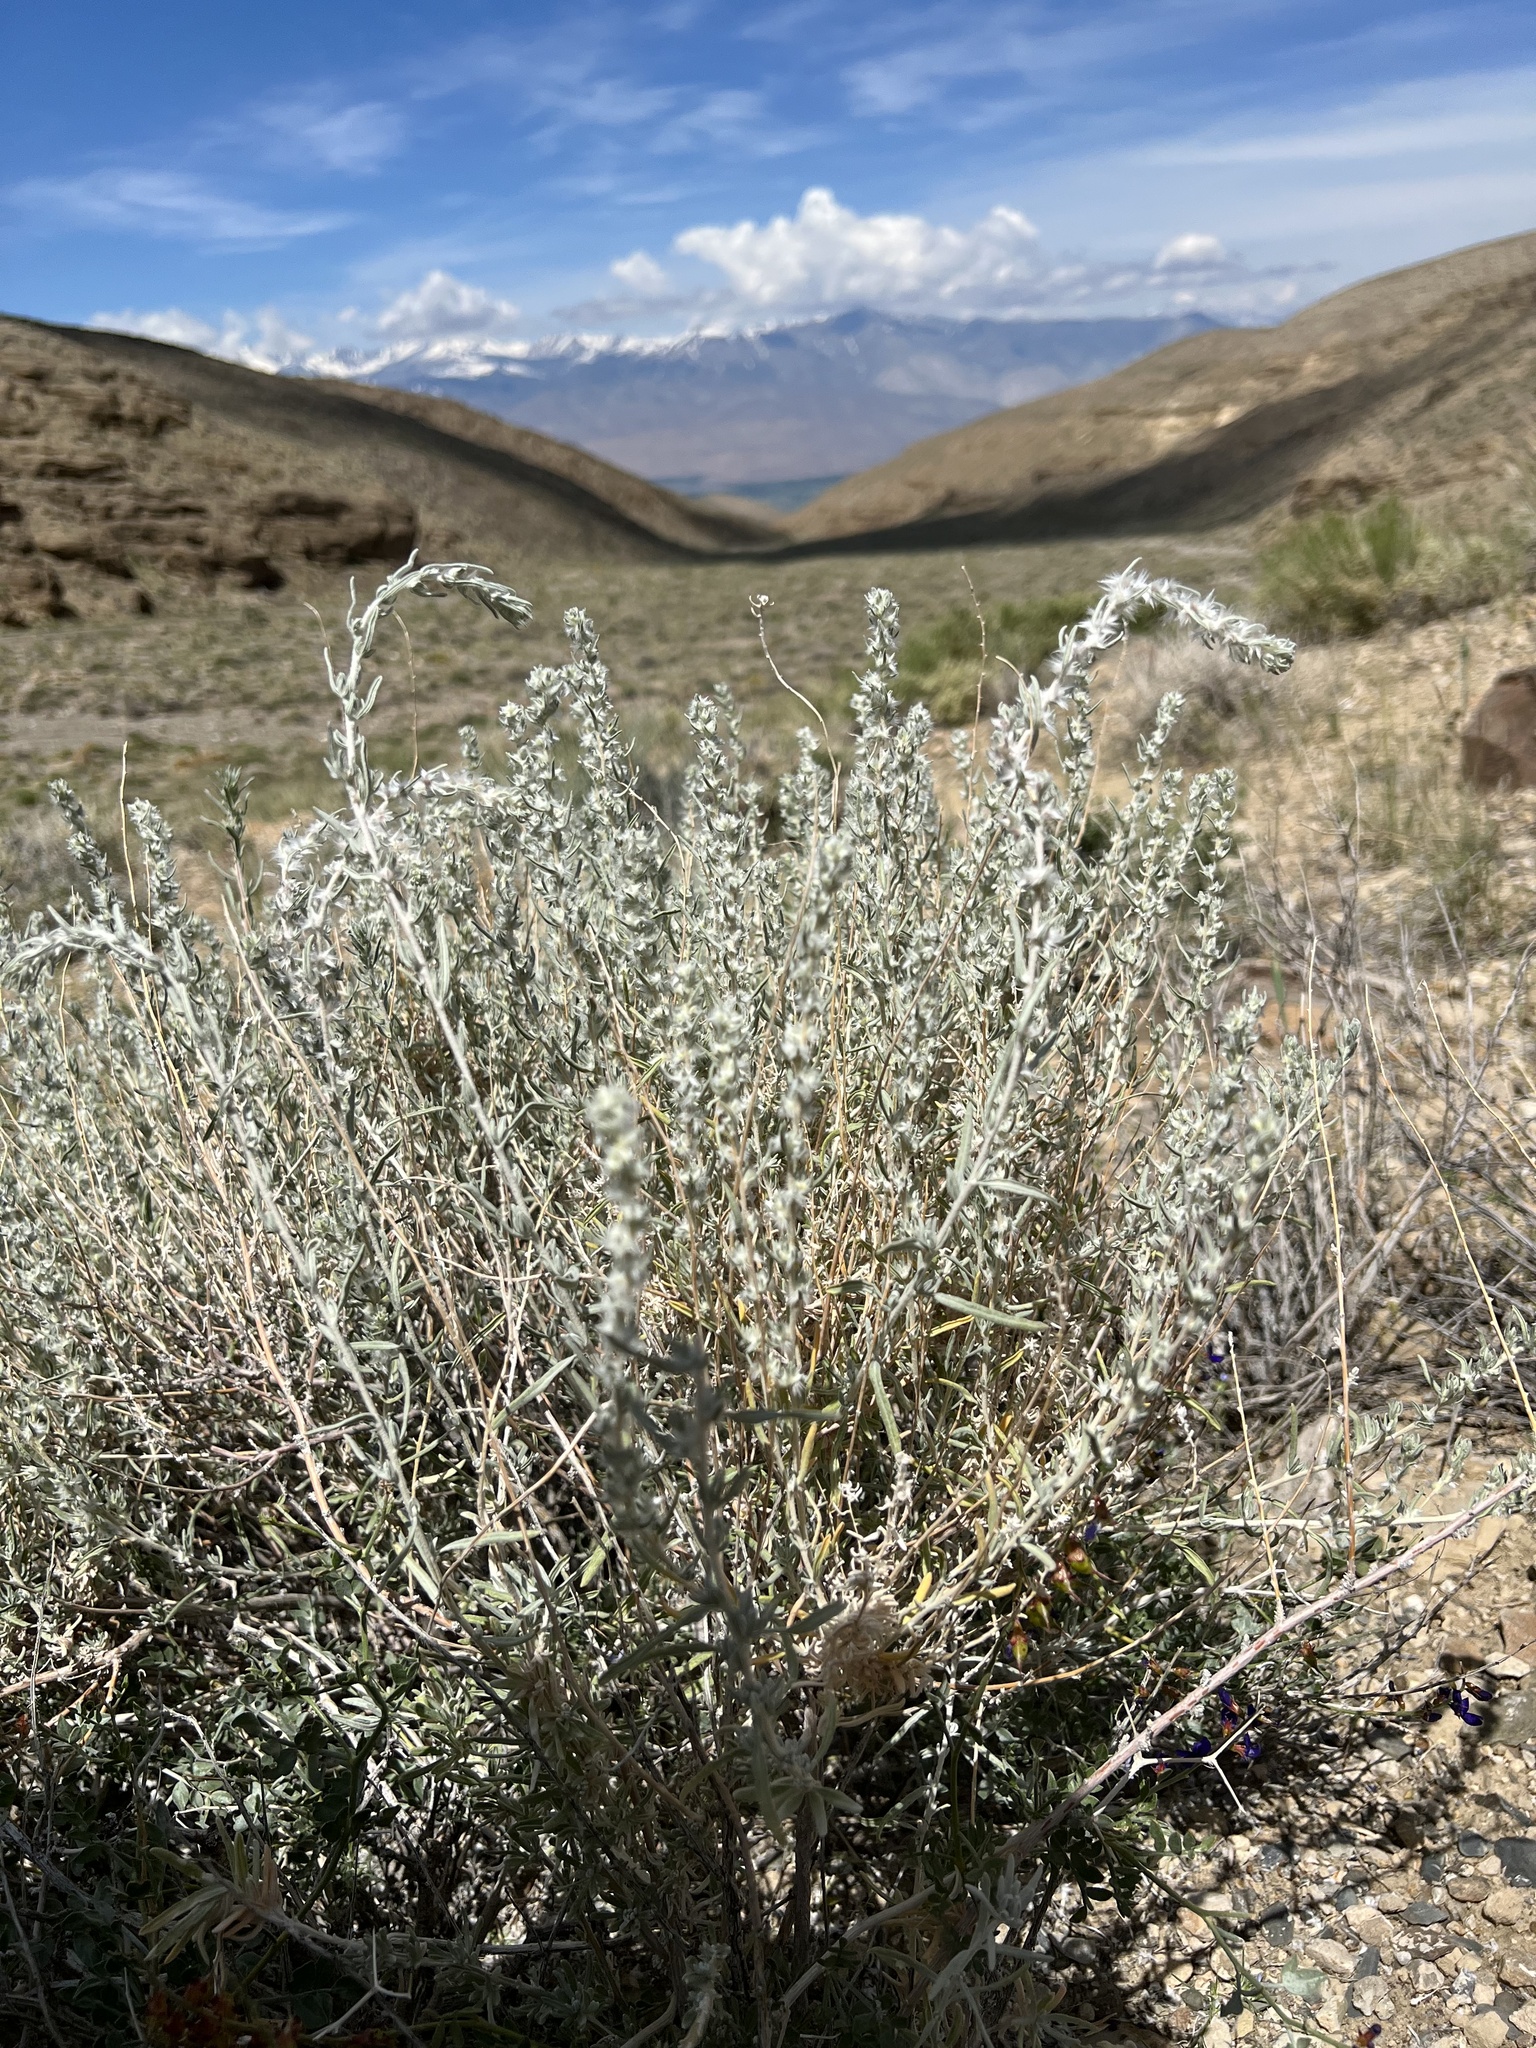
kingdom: Plantae
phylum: Tracheophyta
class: Magnoliopsida
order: Caryophyllales
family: Amaranthaceae
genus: Krascheninnikovia
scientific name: Krascheninnikovia lanata
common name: Winterfat
